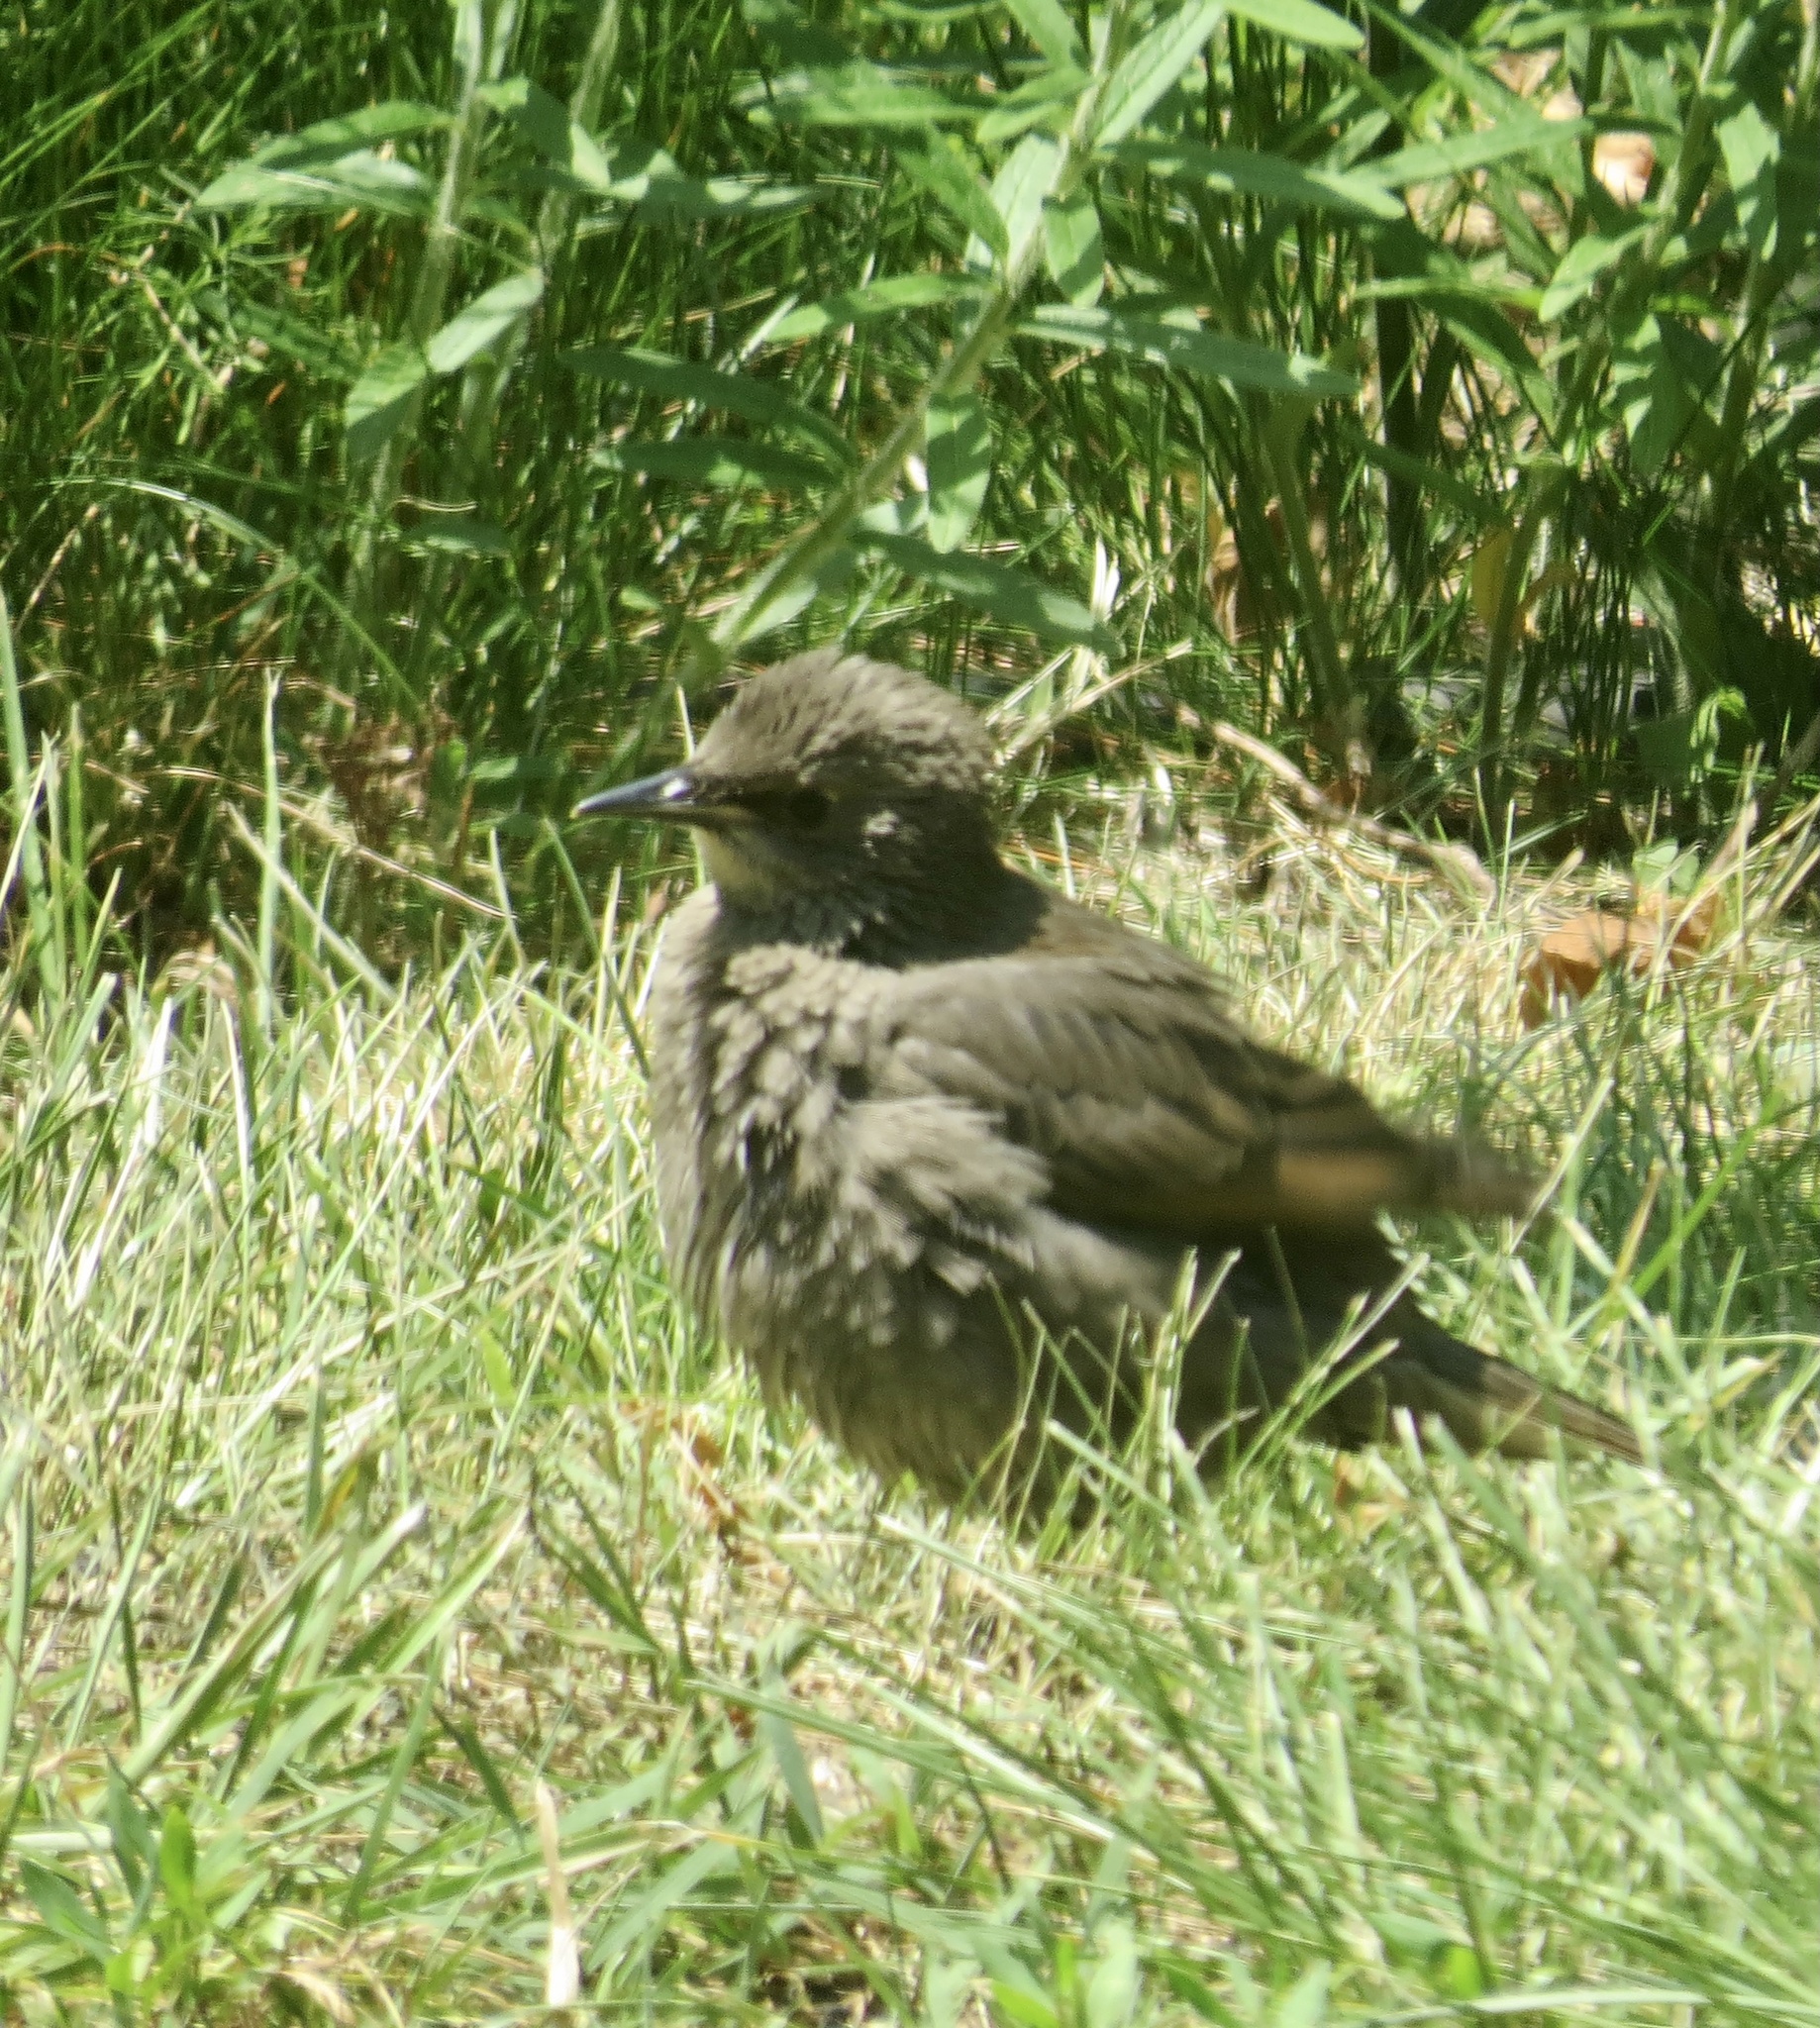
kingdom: Animalia
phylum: Chordata
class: Aves
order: Passeriformes
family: Sturnidae
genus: Sturnus
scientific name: Sturnus vulgaris
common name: Common starling
